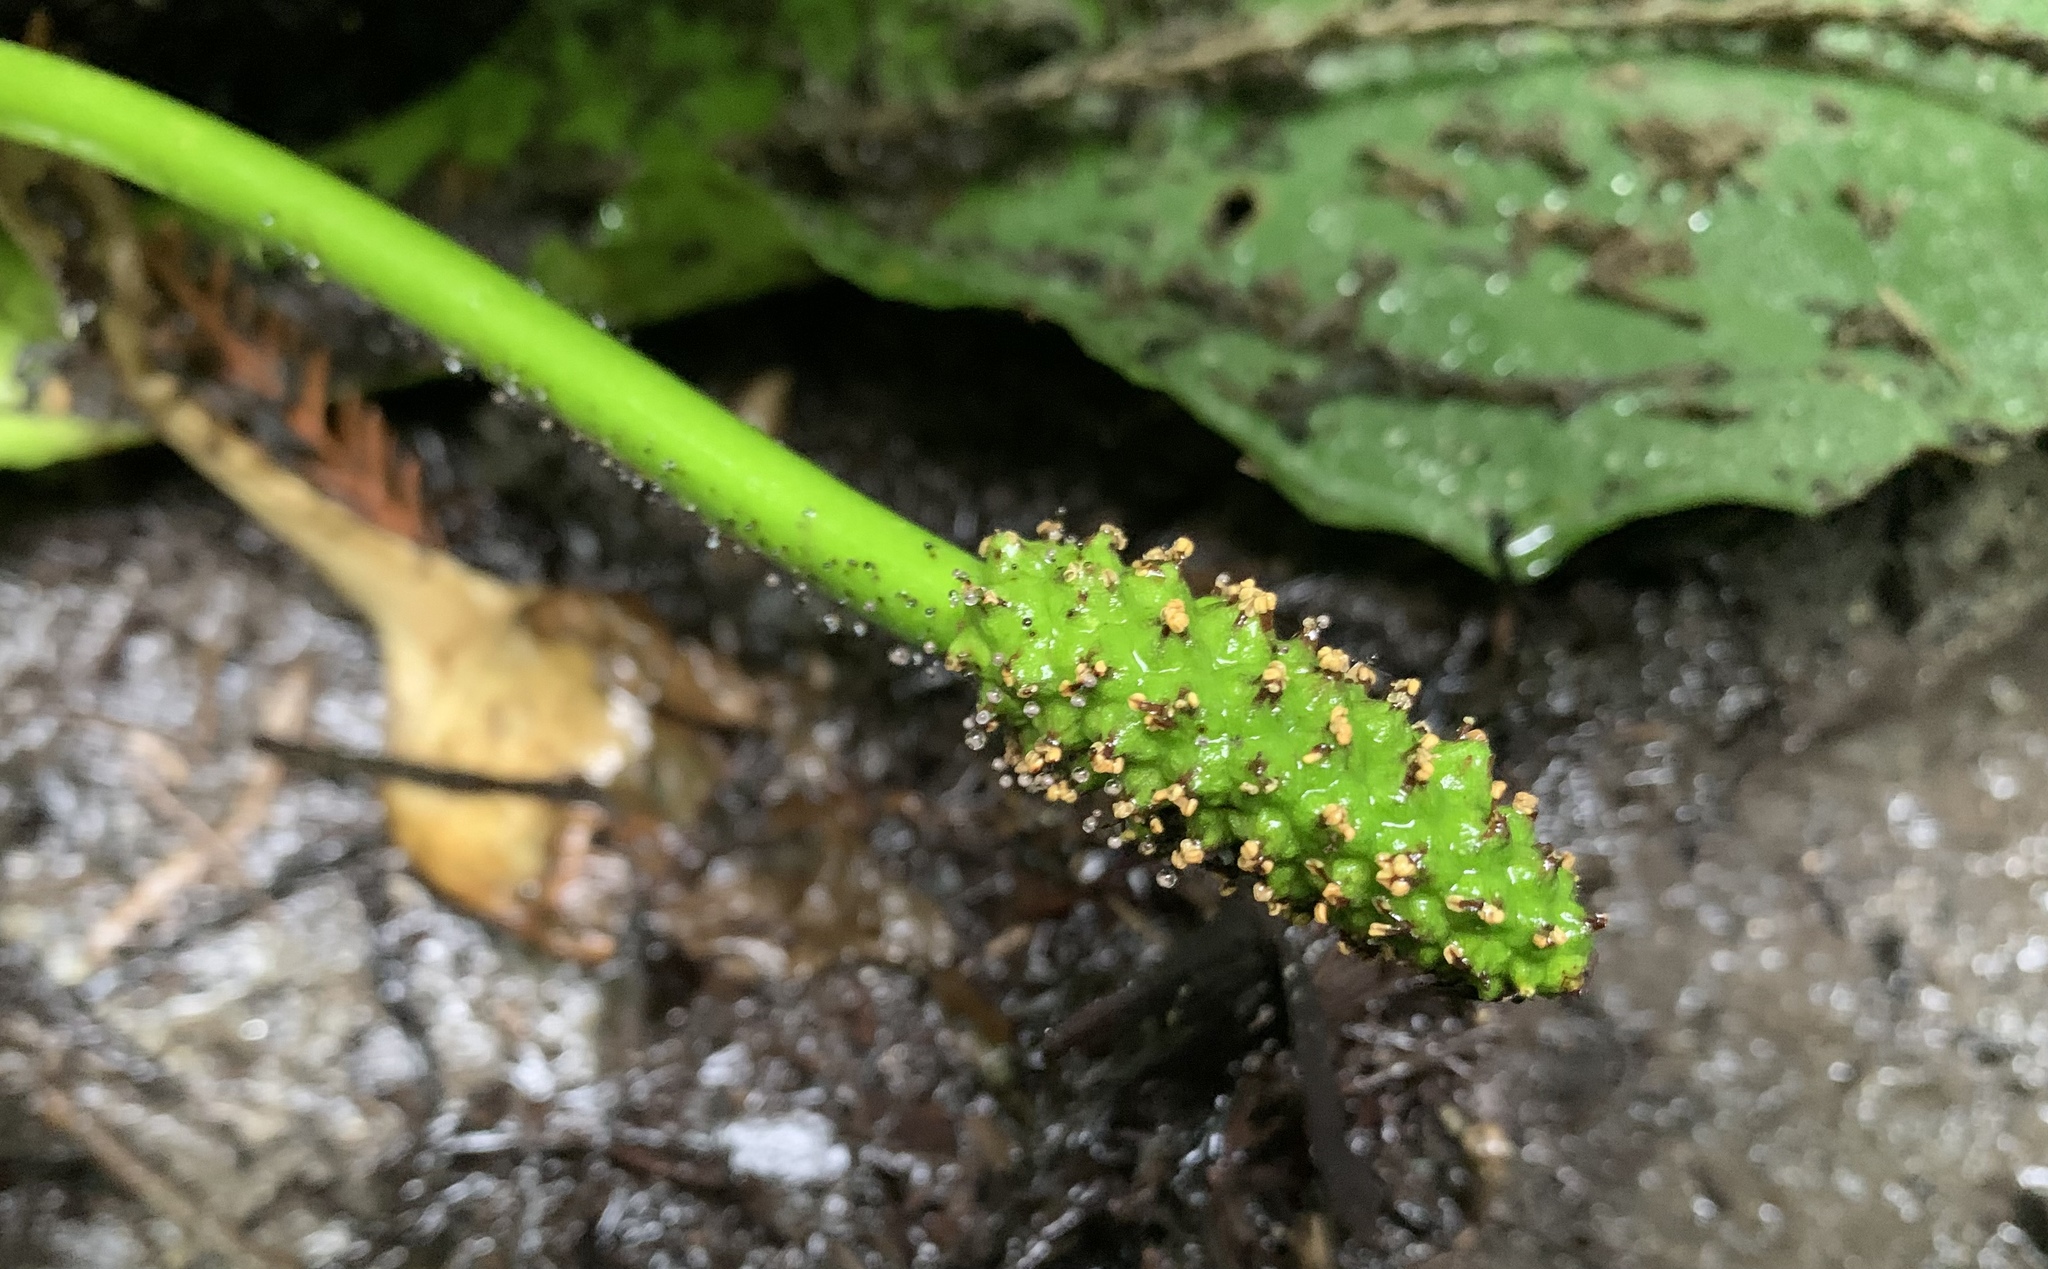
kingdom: Plantae
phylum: Tracheophyta
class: Liliopsida
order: Alismatales
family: Araceae
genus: Lysichiton
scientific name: Lysichiton americanus
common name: American skunk cabbage
